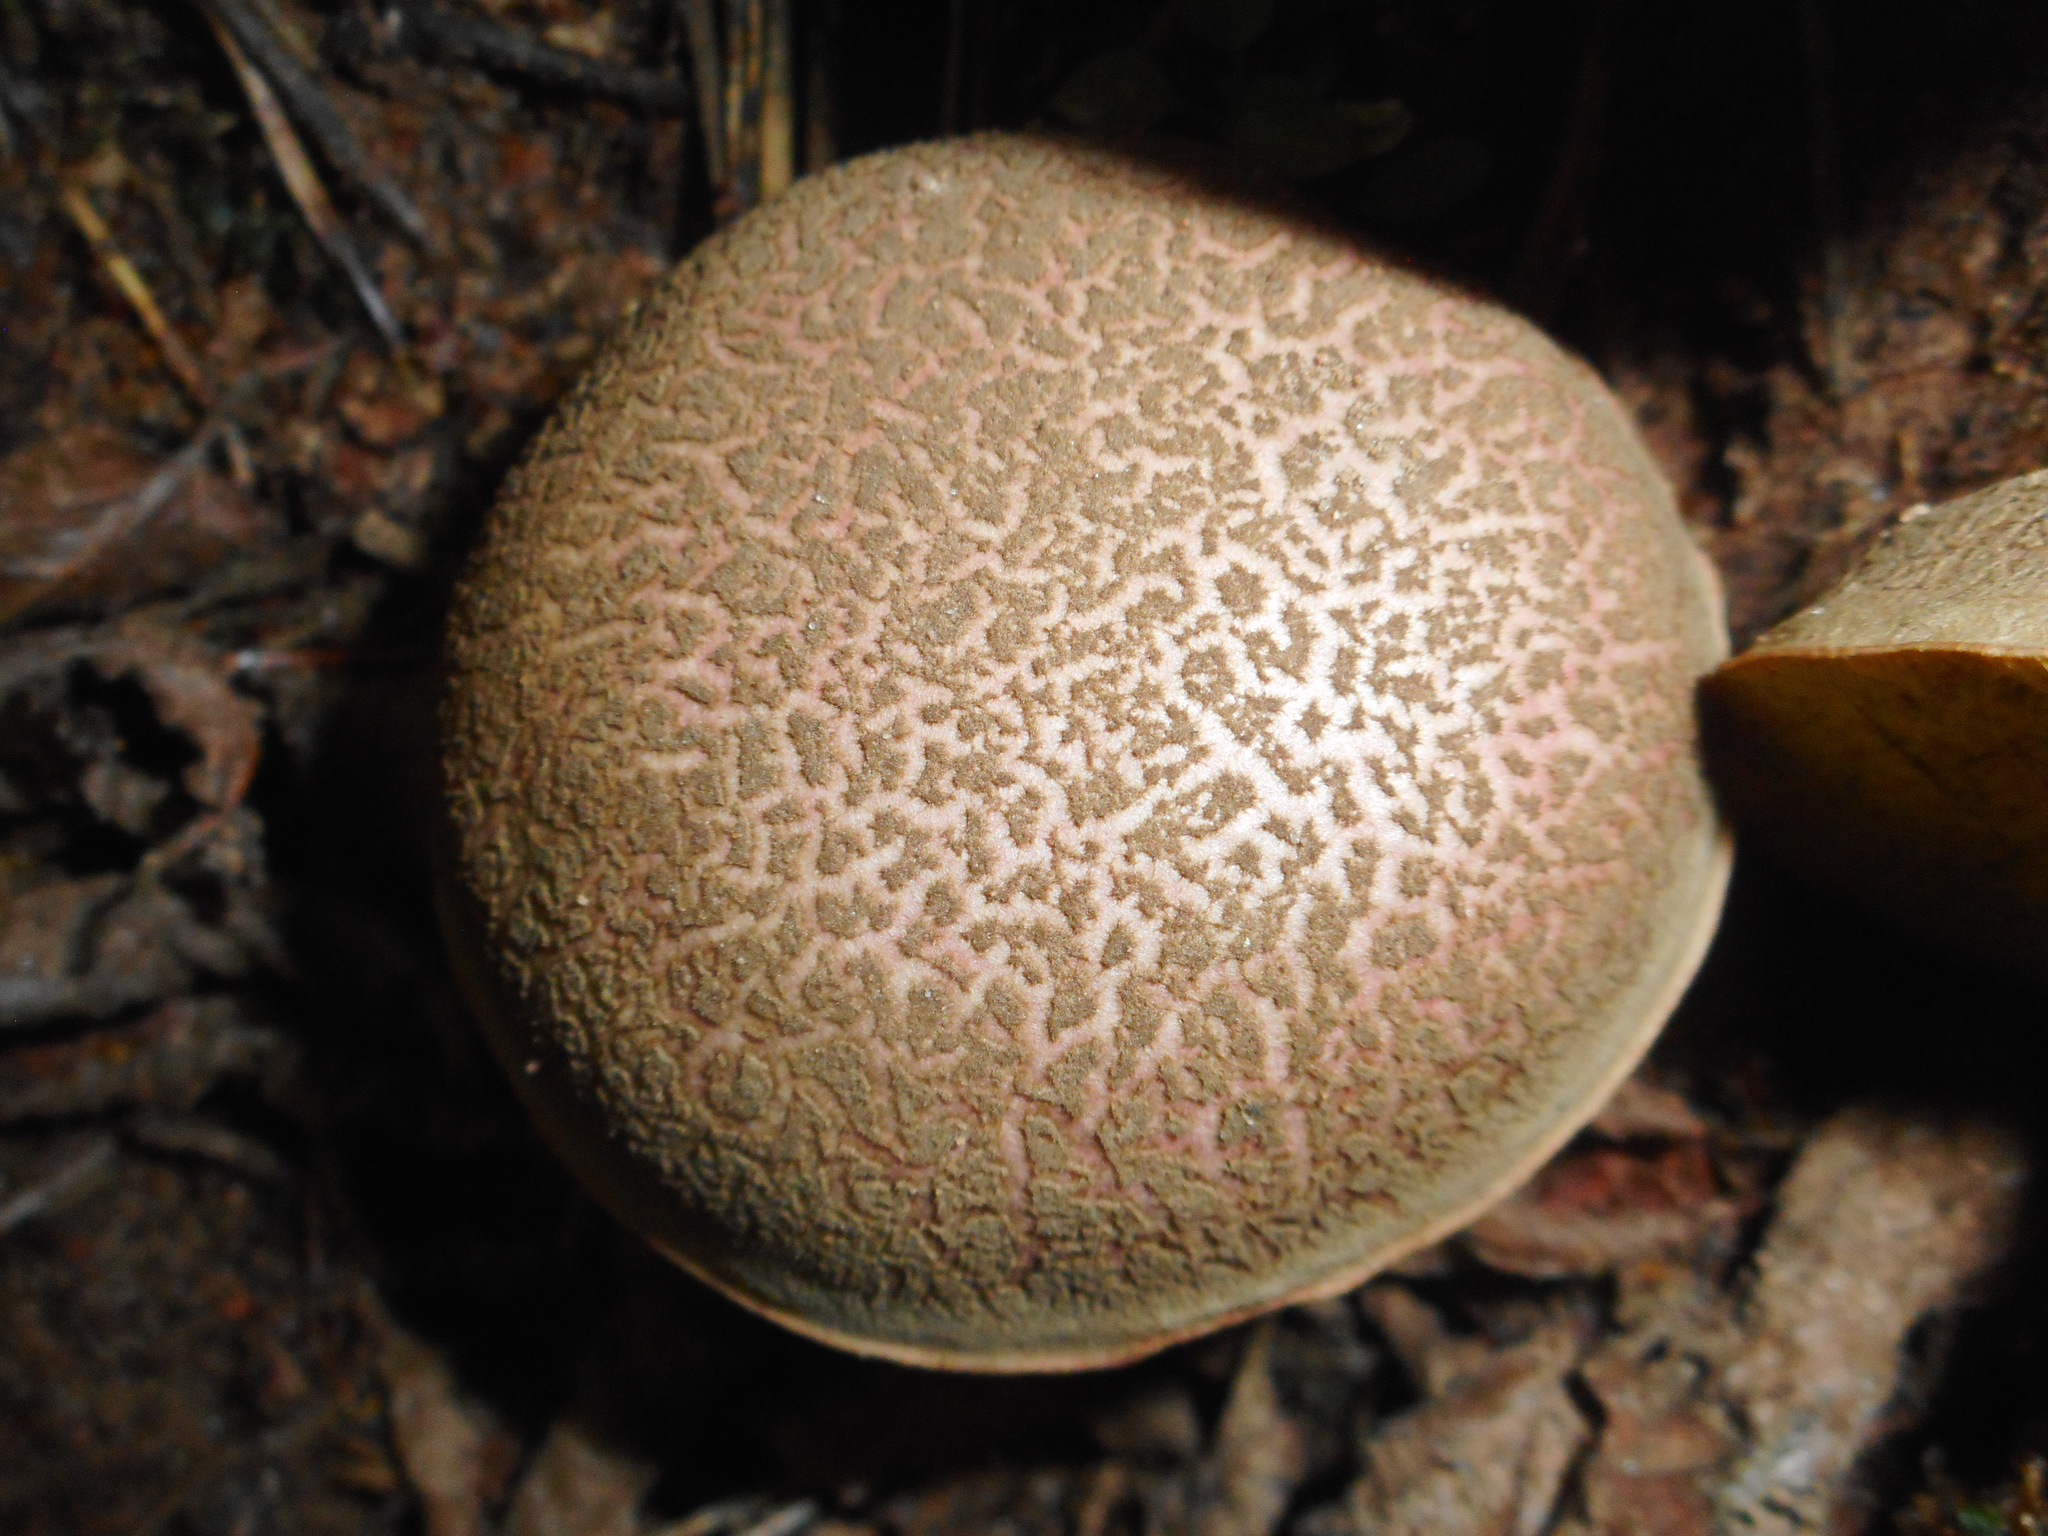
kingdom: Fungi
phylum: Basidiomycota
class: Agaricomycetes
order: Boletales
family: Boletaceae
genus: Xerocomellus
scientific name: Xerocomellus cisalpinus
